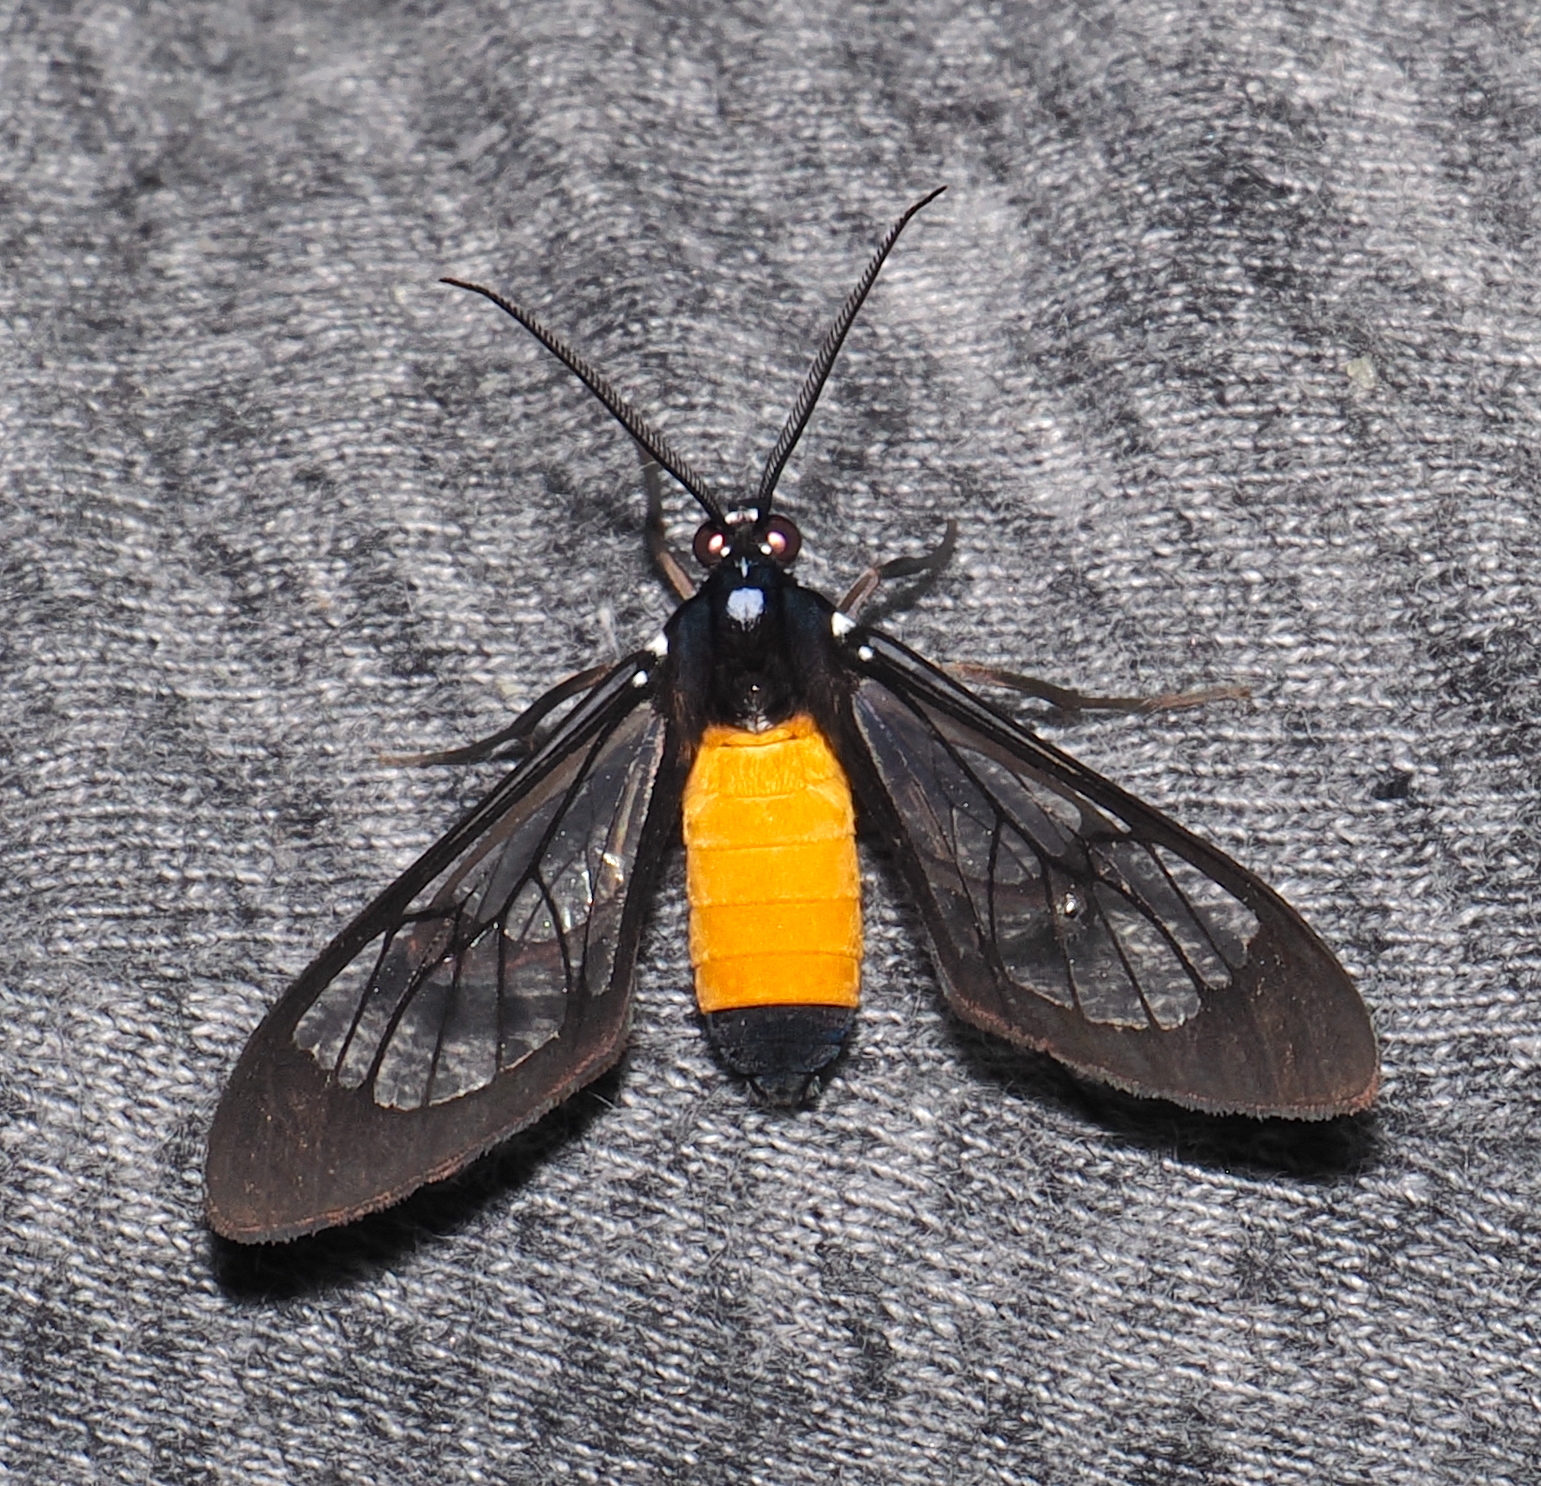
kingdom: Animalia
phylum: Arthropoda
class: Insecta
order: Lepidoptera
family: Erebidae
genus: Cosmosoma
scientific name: Cosmosoma stibosticta
